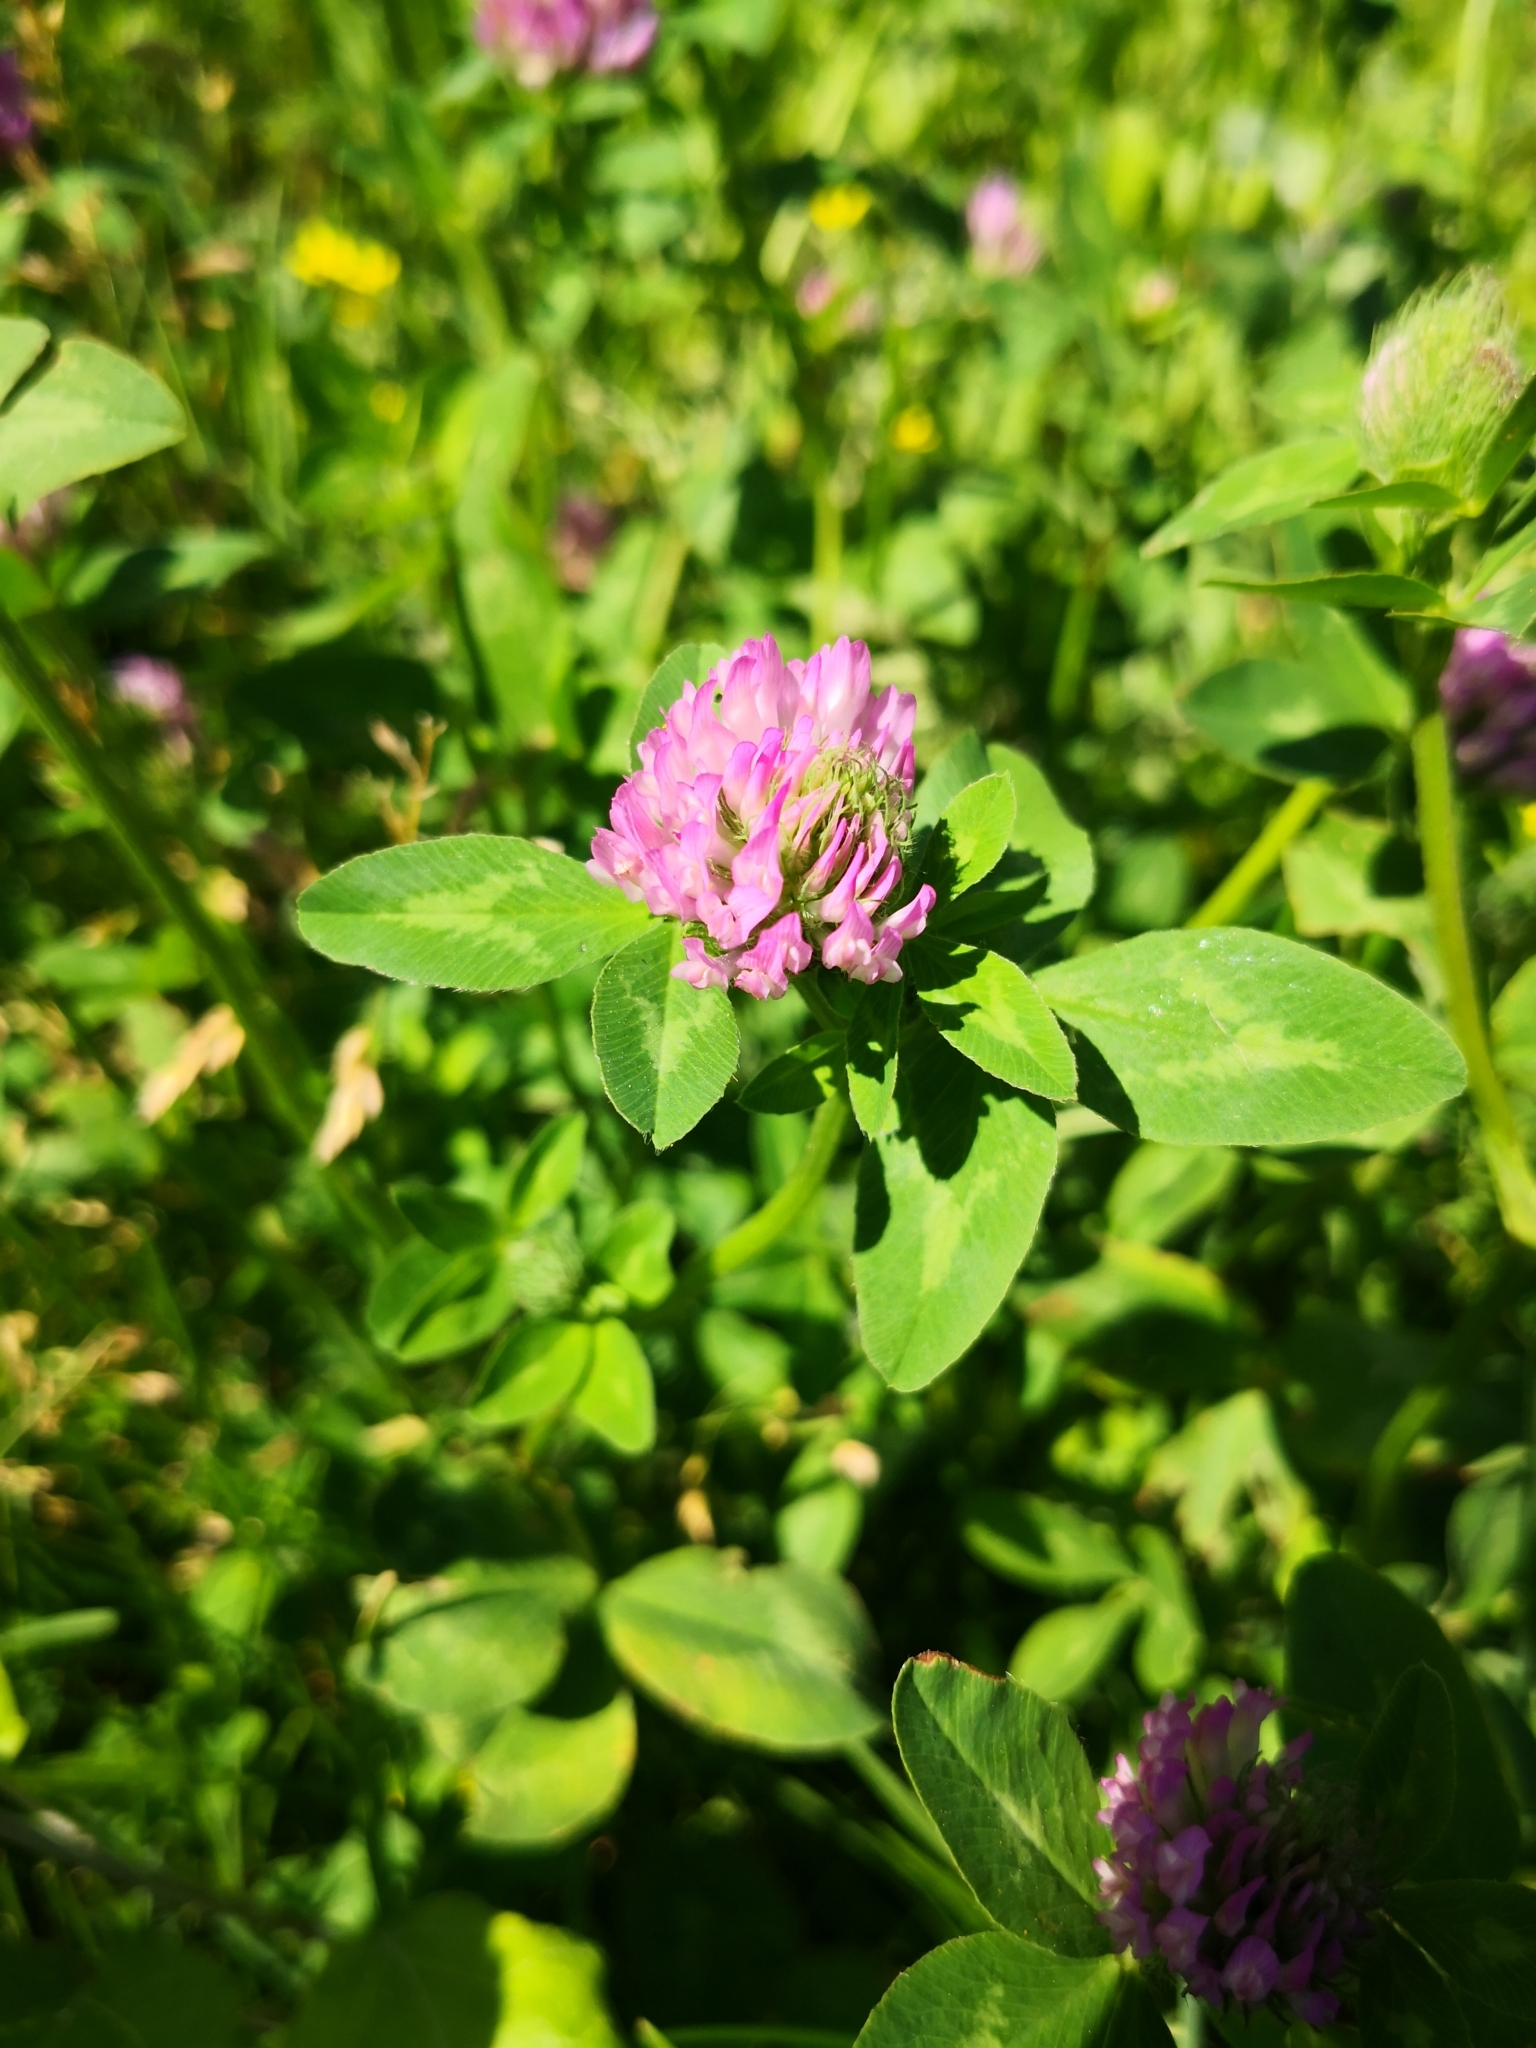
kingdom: Plantae
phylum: Tracheophyta
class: Magnoliopsida
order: Fabales
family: Fabaceae
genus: Trifolium
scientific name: Trifolium pratense
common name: Red clover
